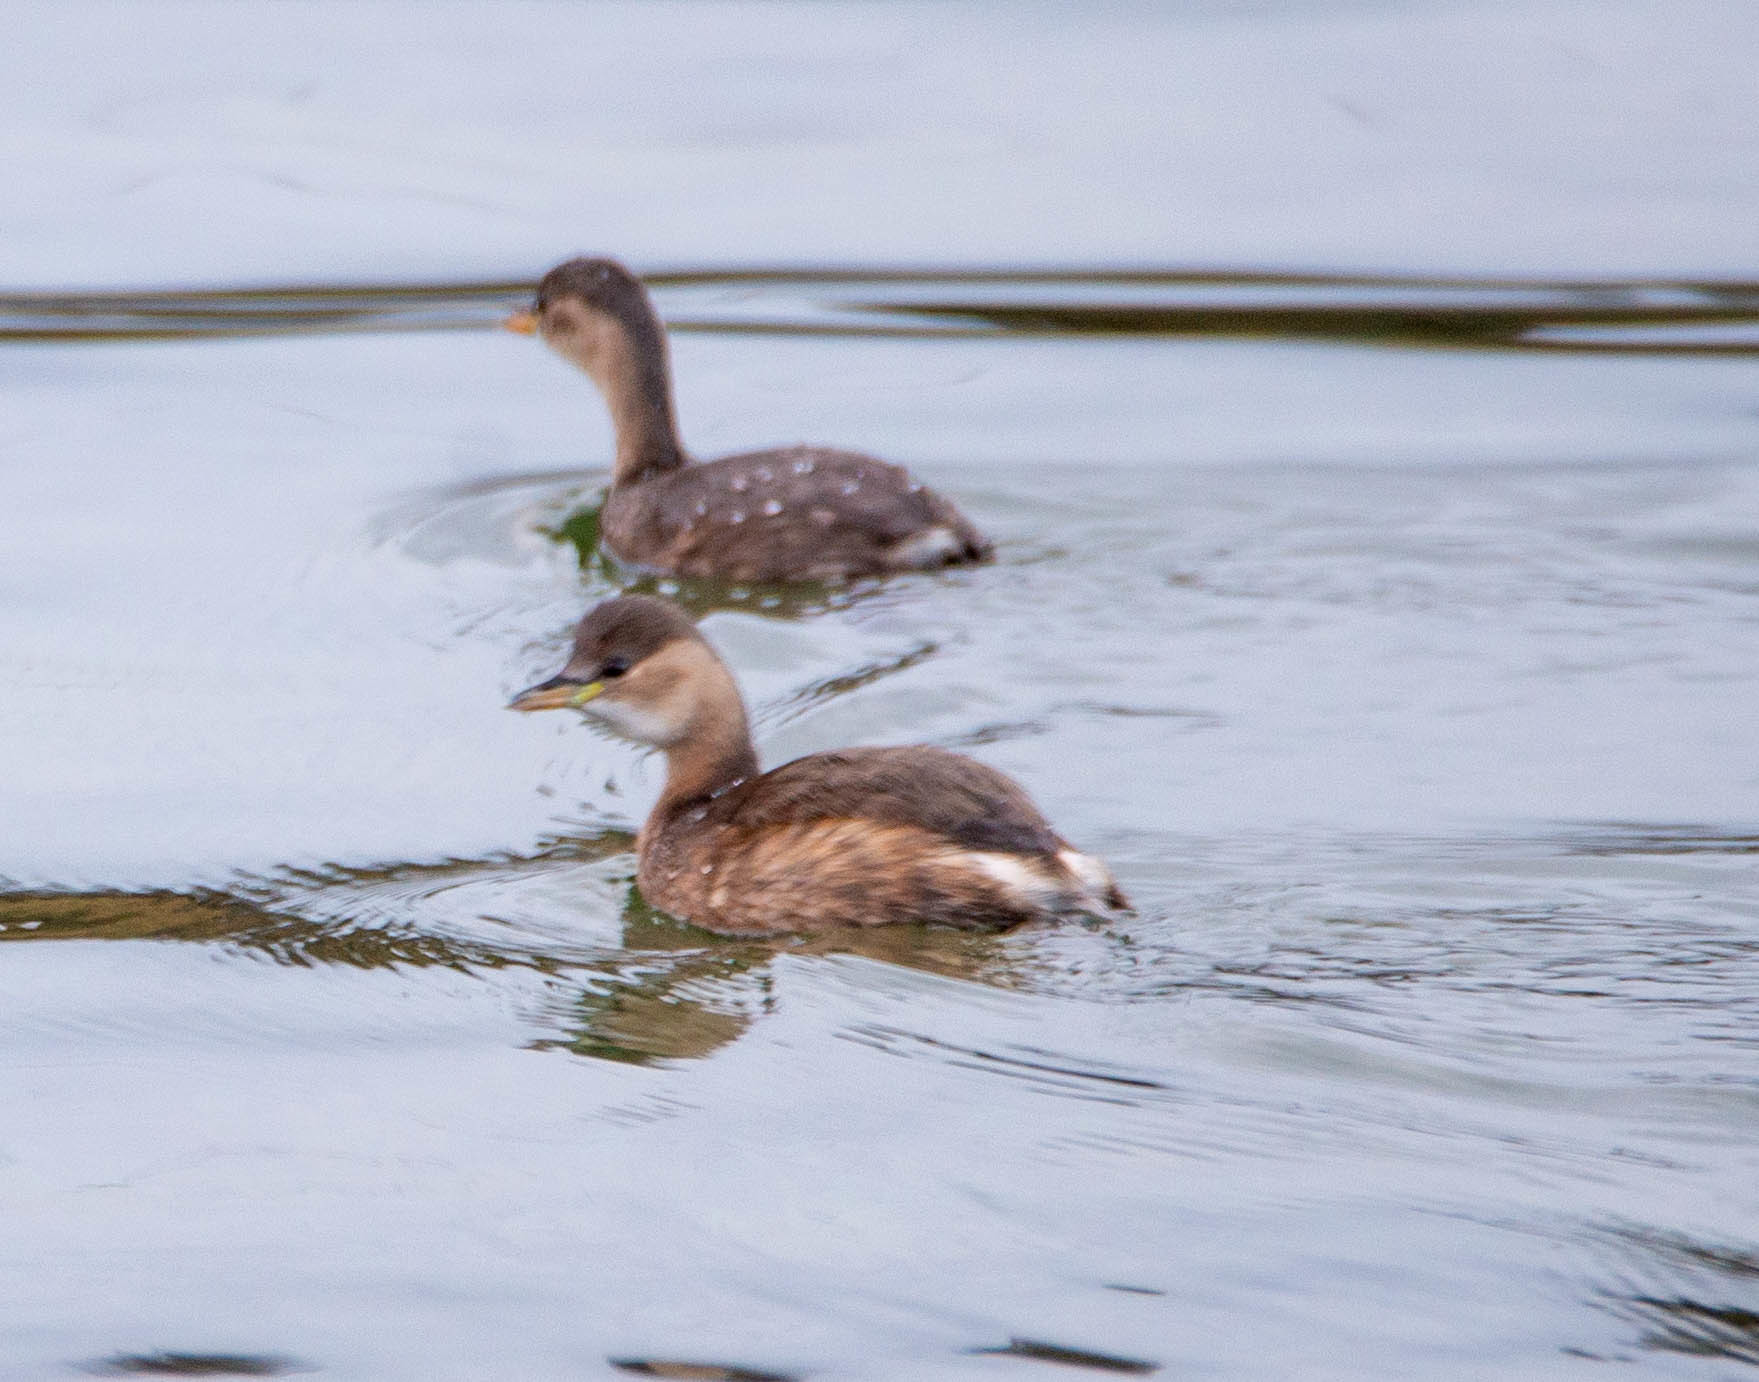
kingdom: Animalia
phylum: Chordata
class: Aves
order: Podicipediformes
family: Podicipedidae
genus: Tachybaptus
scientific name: Tachybaptus ruficollis
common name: Little grebe
